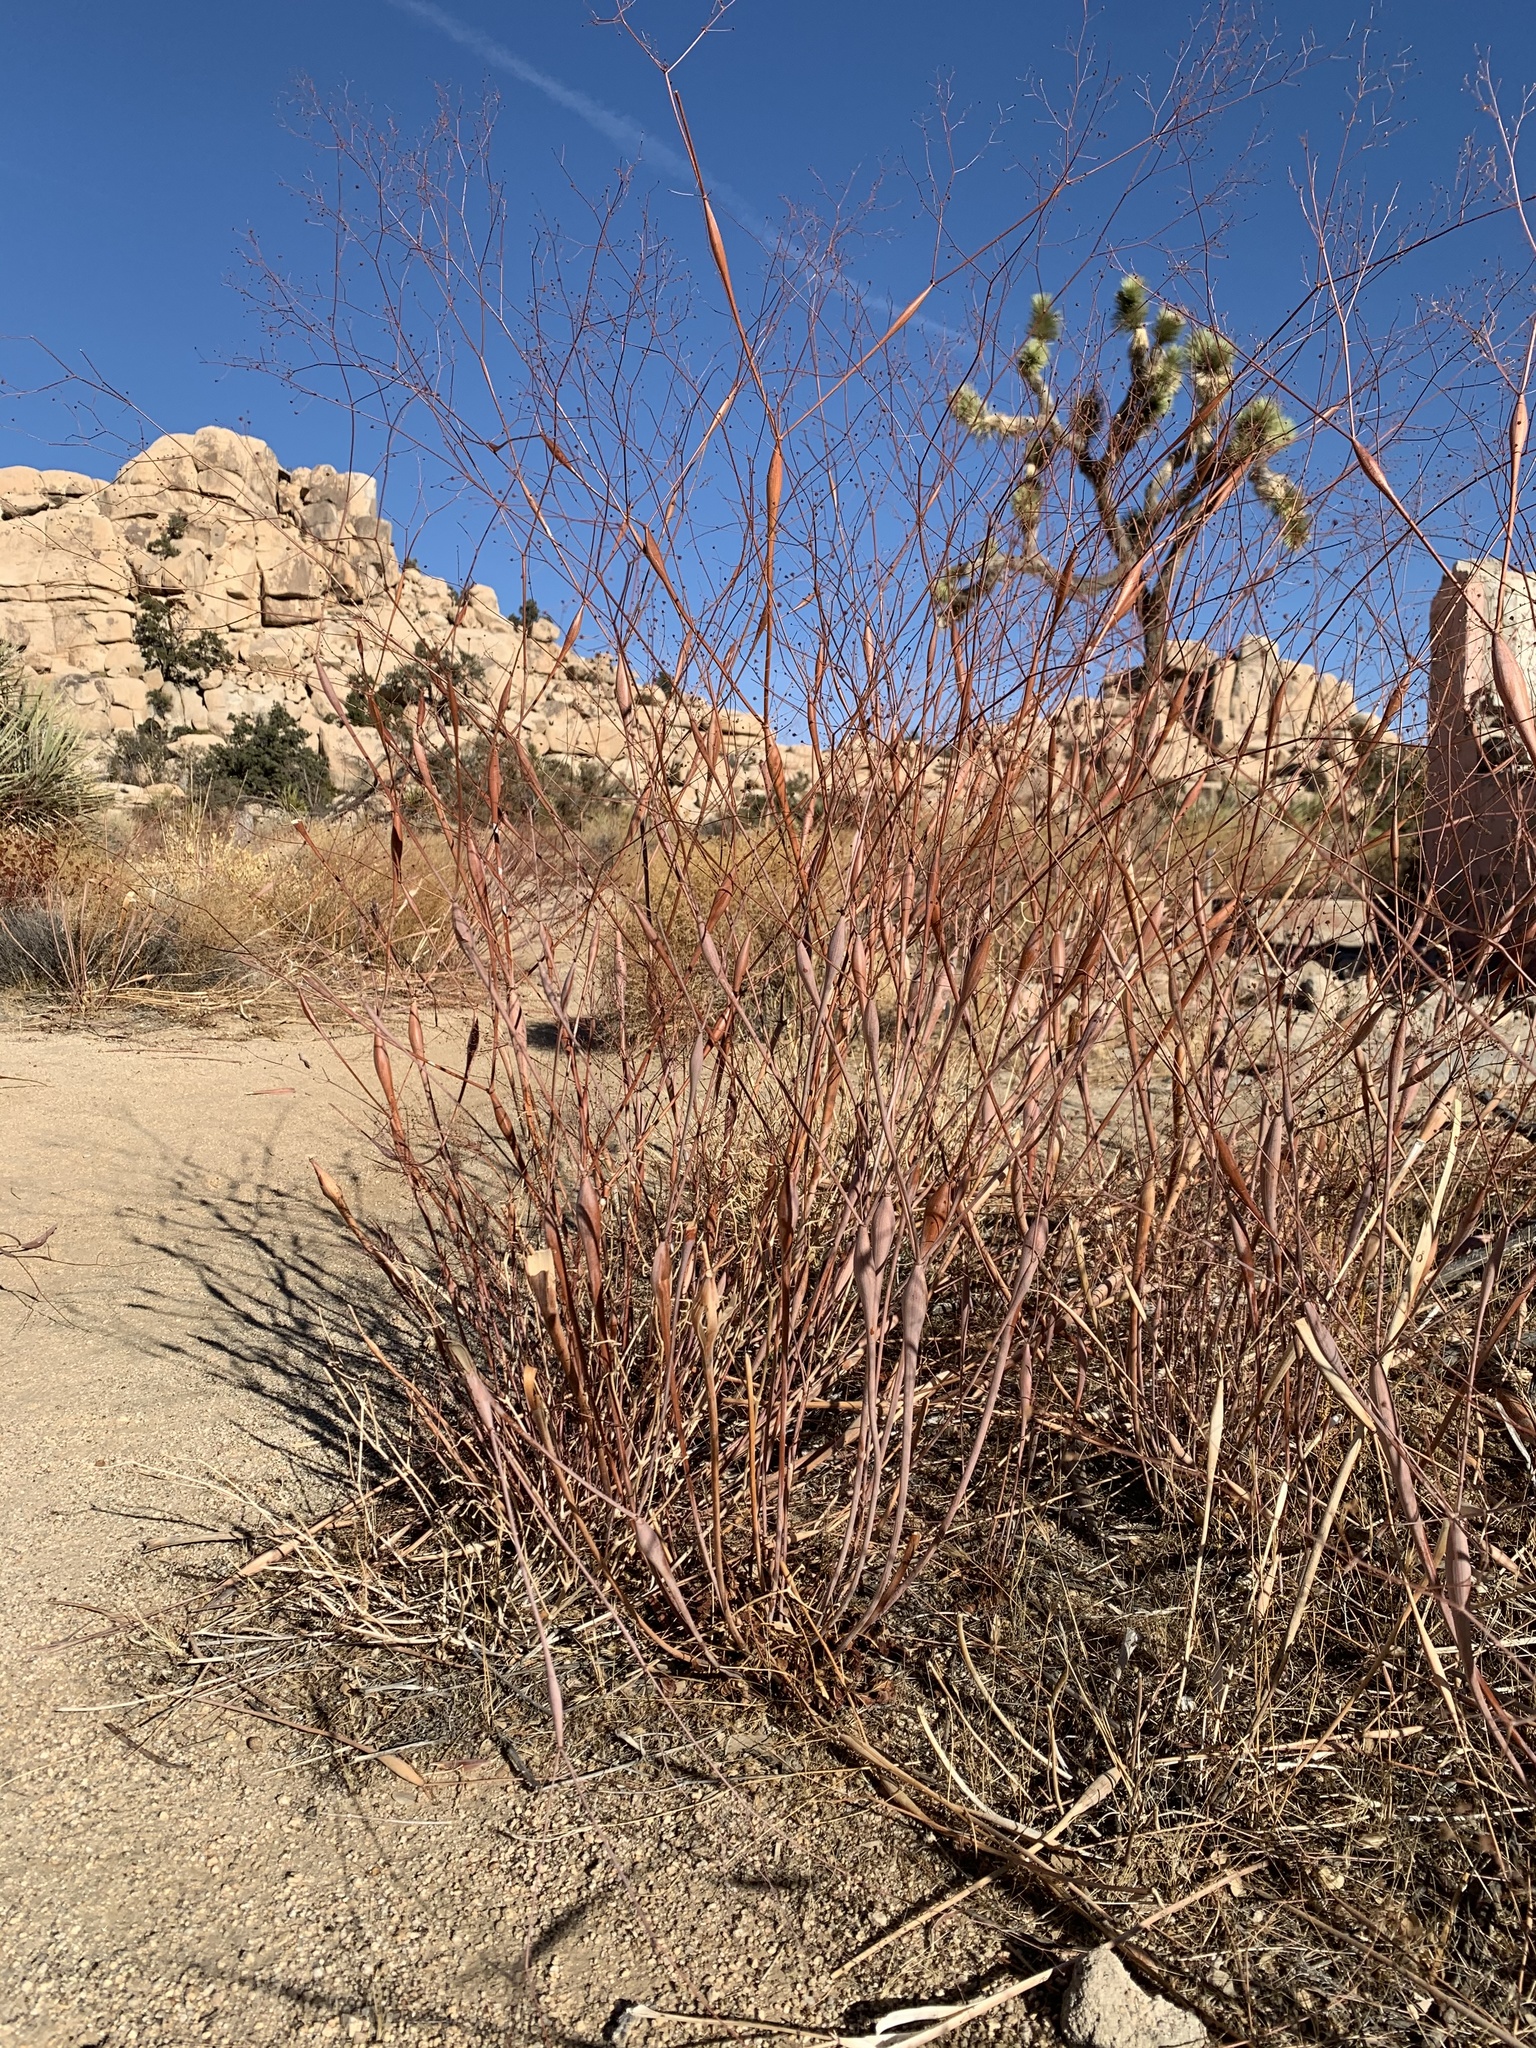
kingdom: Plantae
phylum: Tracheophyta
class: Magnoliopsida
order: Caryophyllales
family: Polygonaceae
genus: Eriogonum
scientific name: Eriogonum inflatum
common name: Desert trumpet
